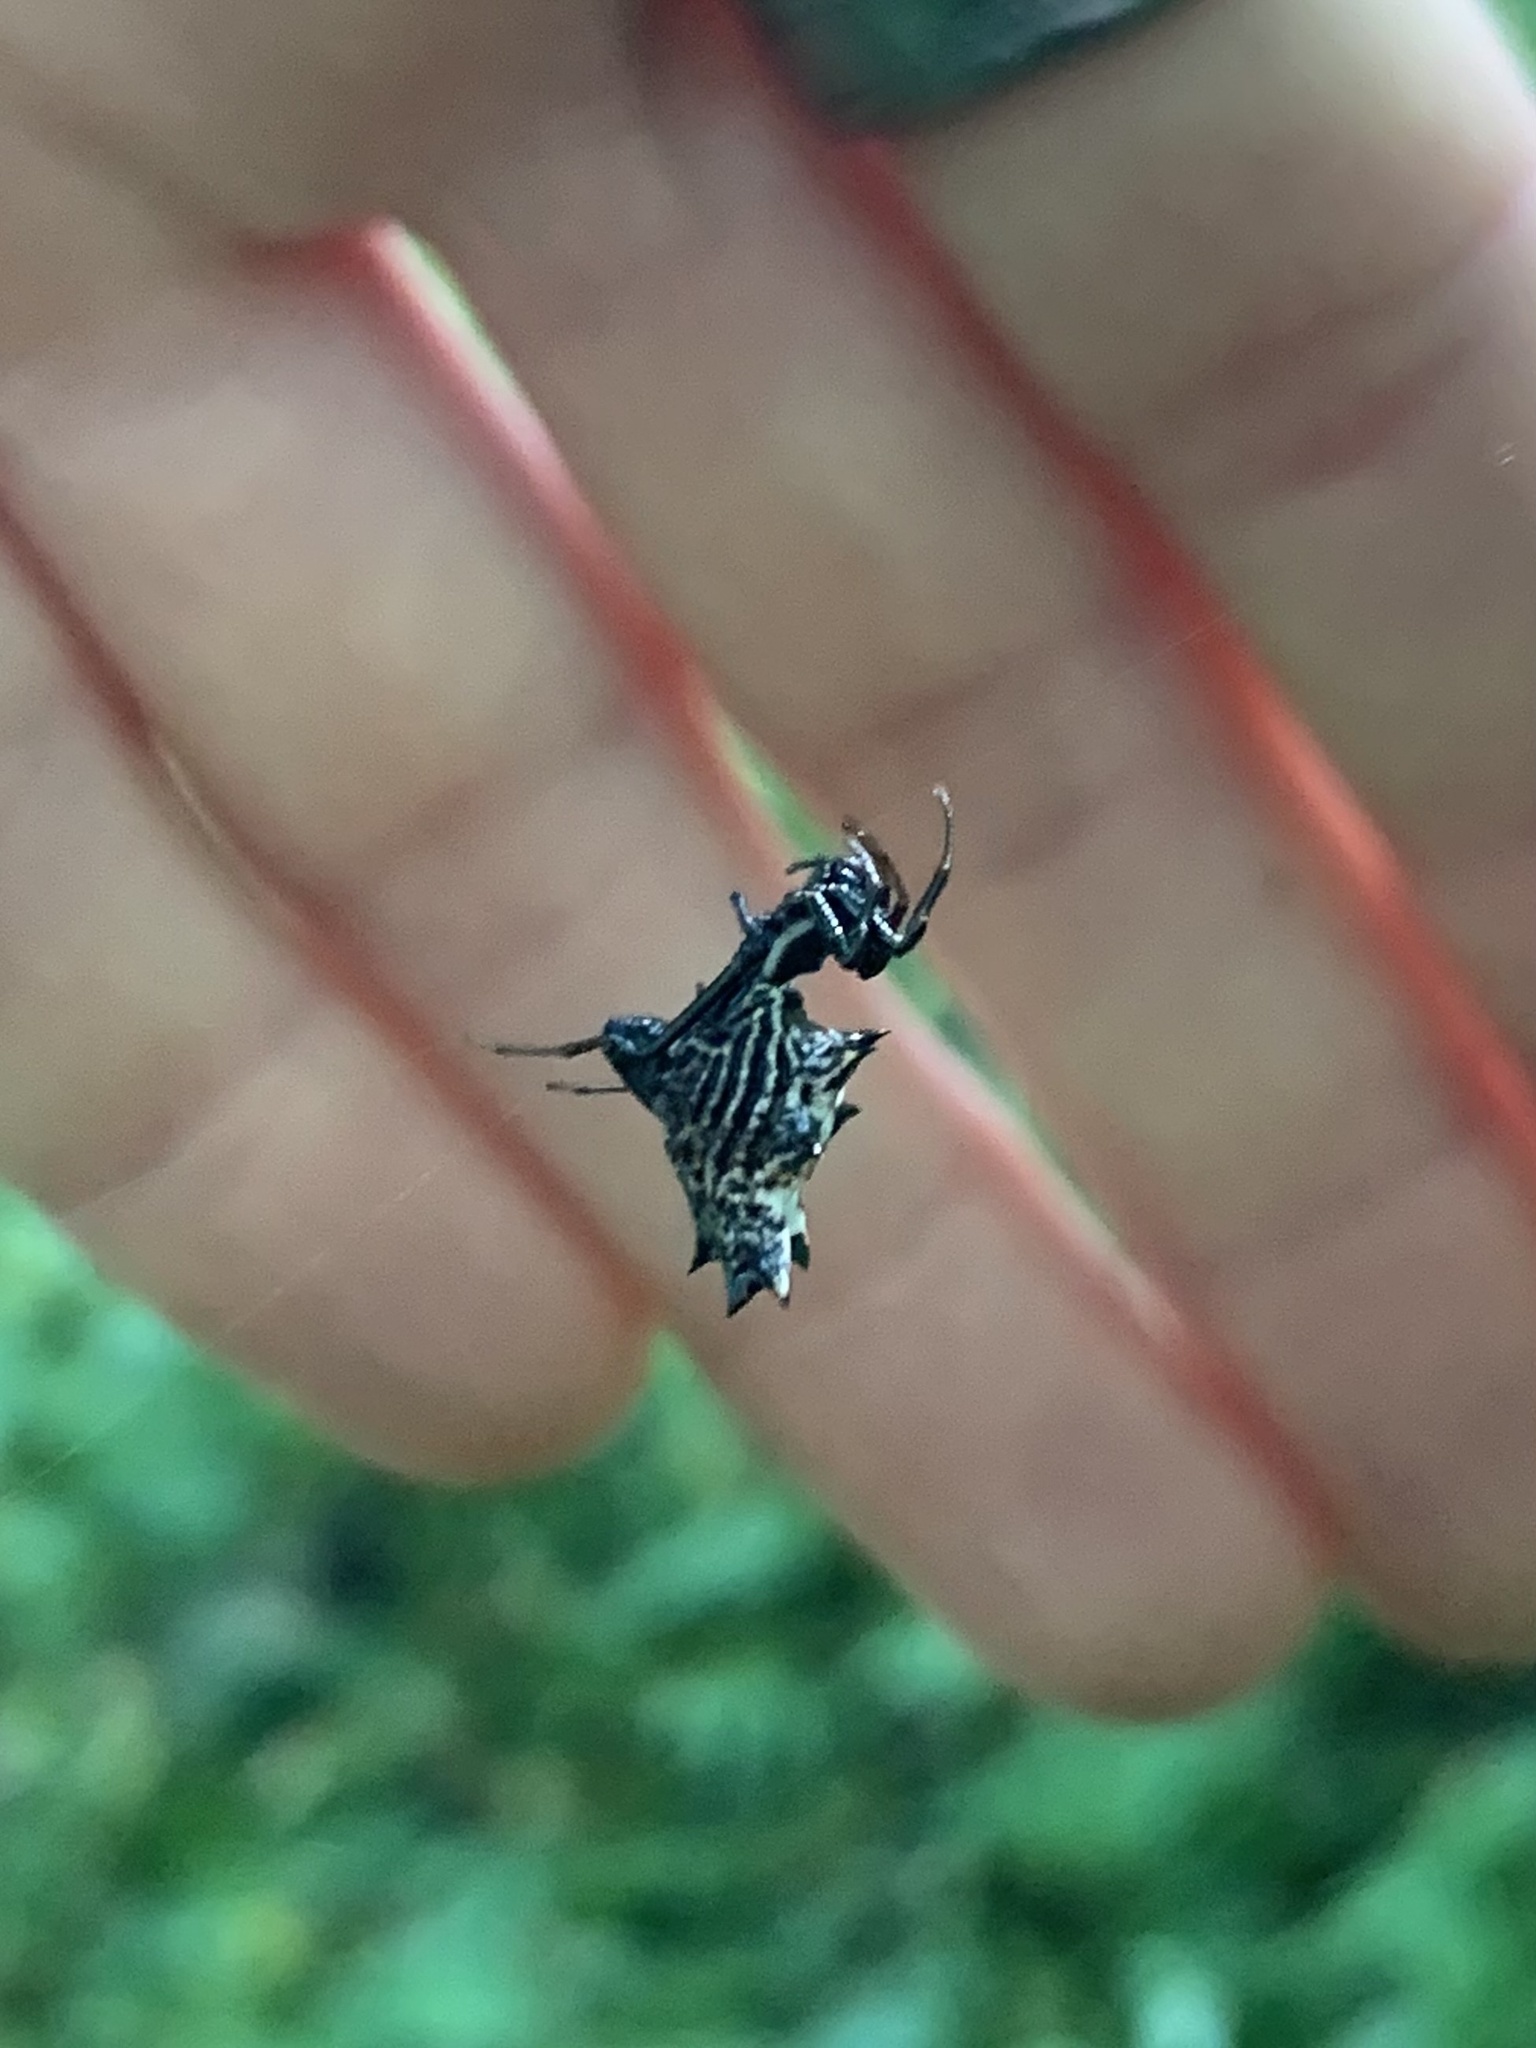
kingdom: Animalia
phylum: Arthropoda
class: Arachnida
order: Araneae
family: Araneidae
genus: Micrathena
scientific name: Micrathena gracilis
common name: Orb weavers
